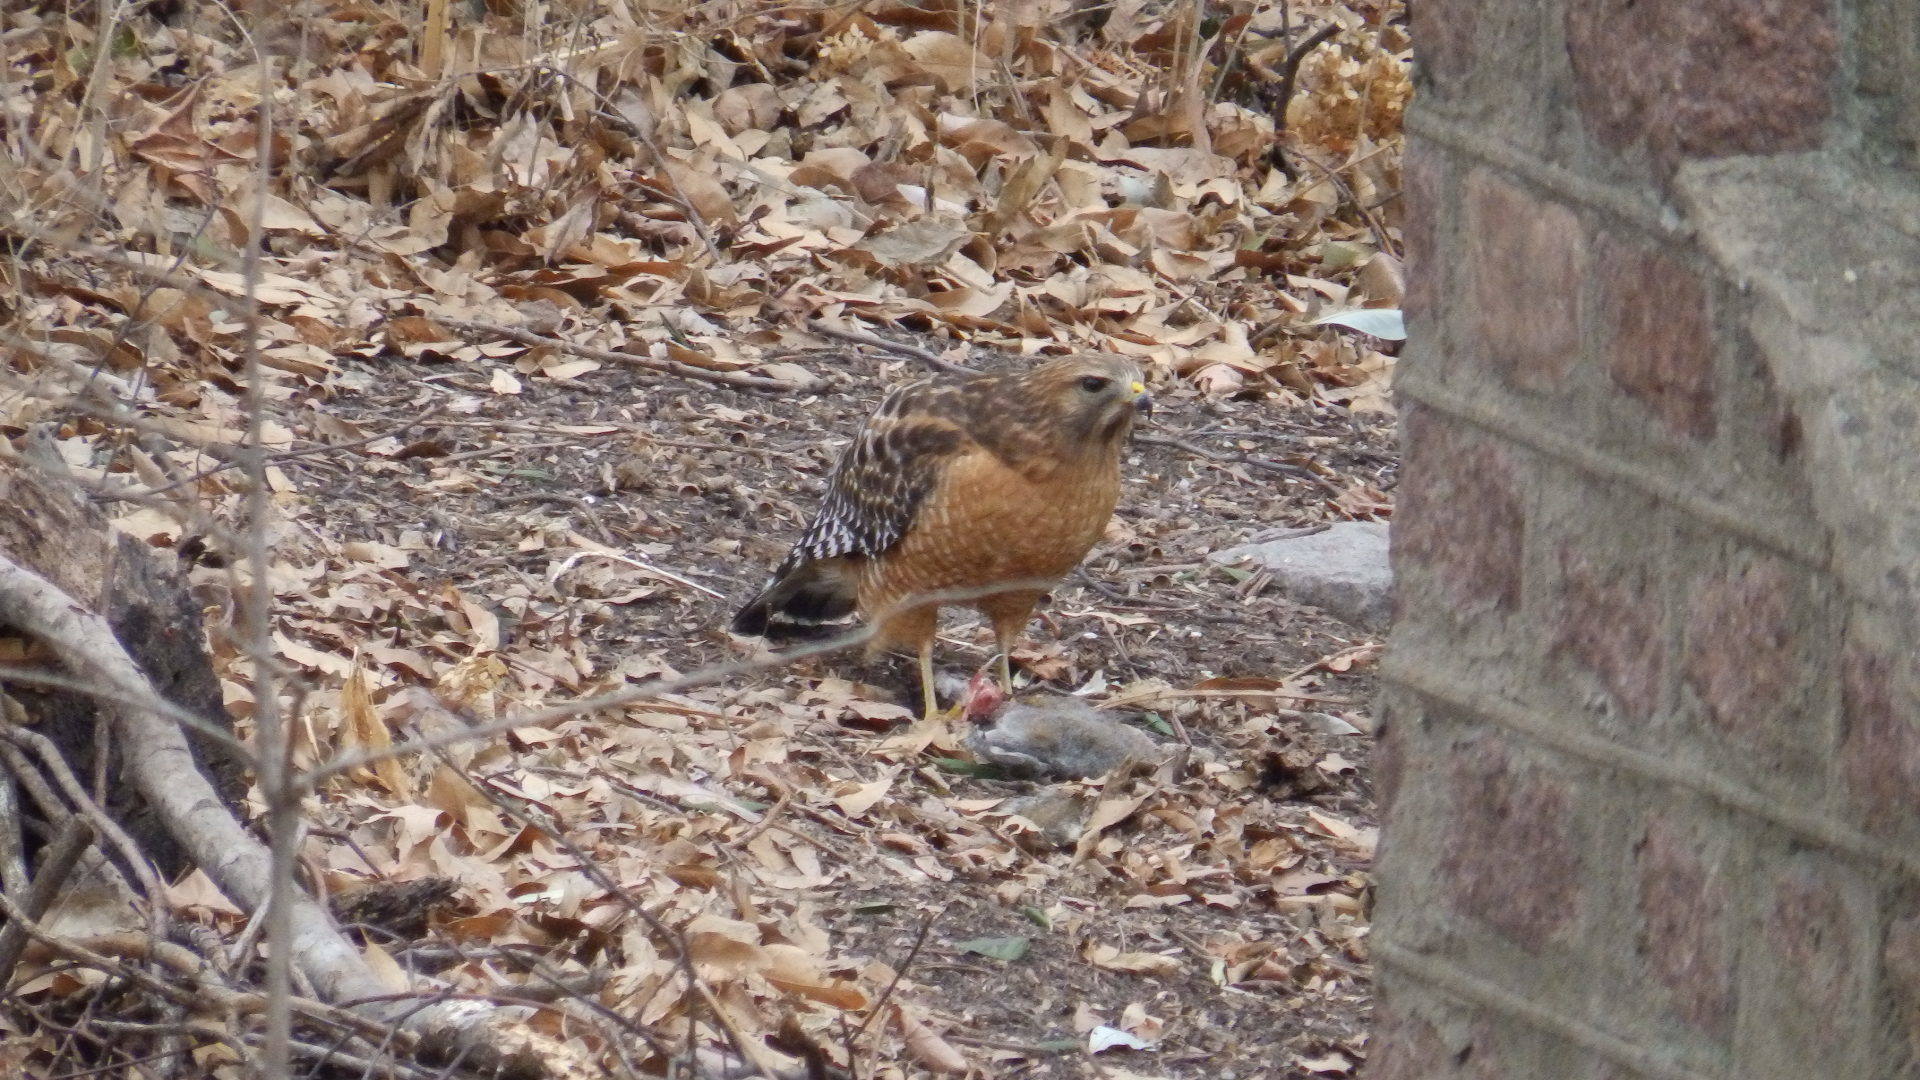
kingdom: Animalia
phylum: Chordata
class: Aves
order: Accipitriformes
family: Accipitridae
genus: Buteo
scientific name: Buteo lineatus
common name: Red-shouldered hawk
